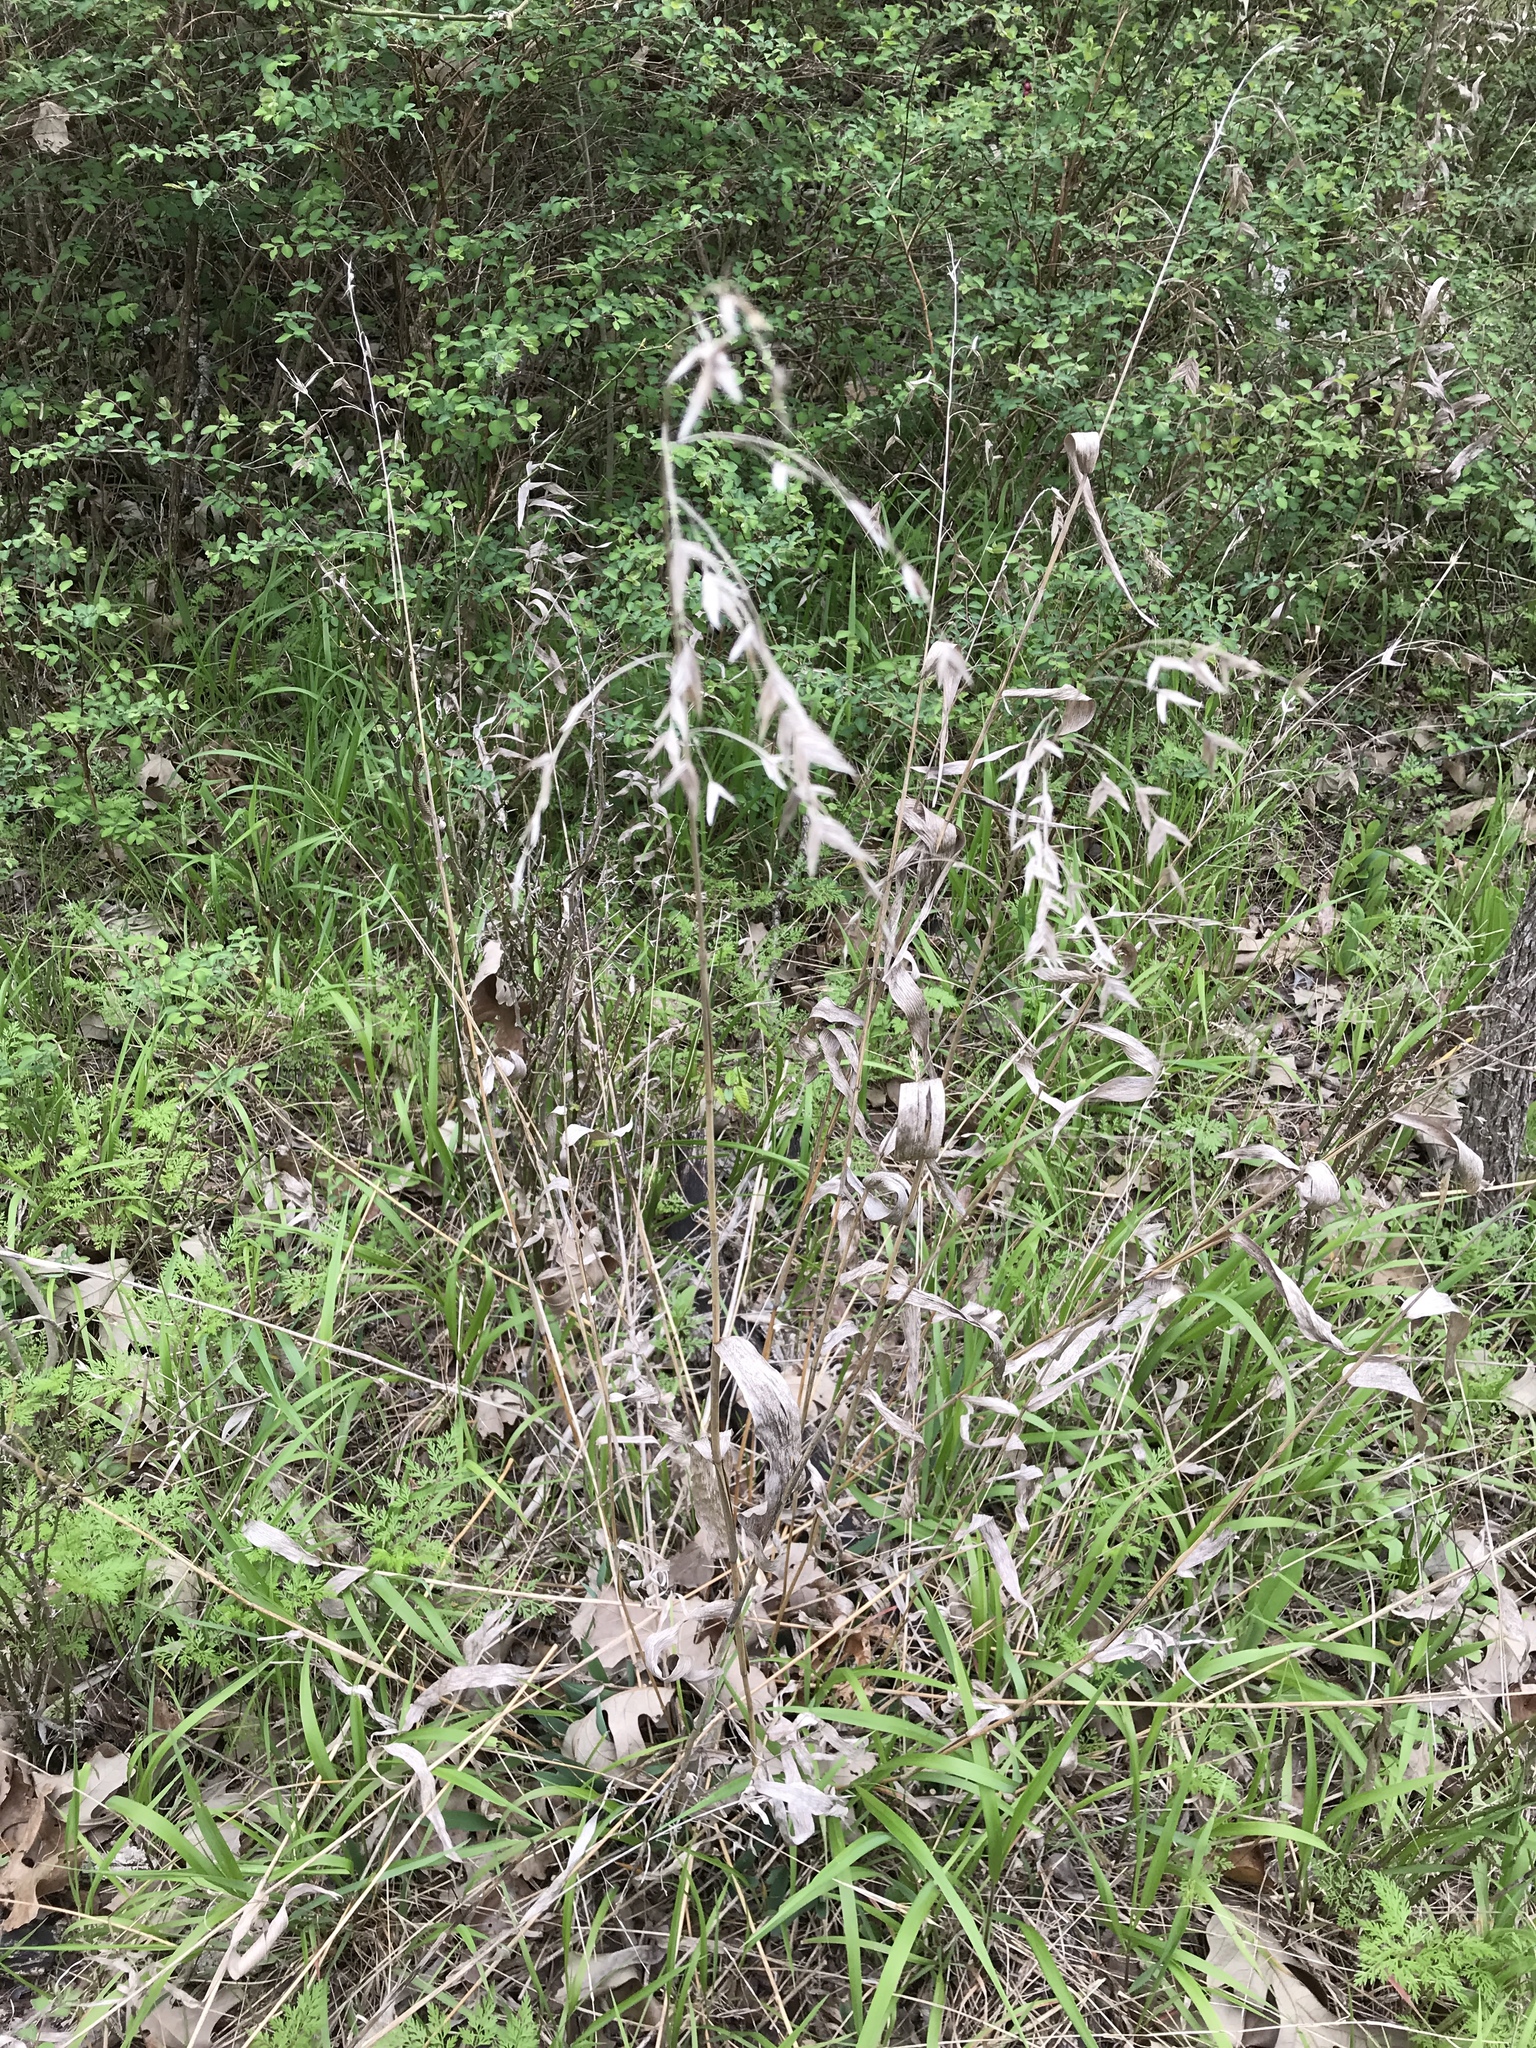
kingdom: Plantae
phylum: Tracheophyta
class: Liliopsida
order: Poales
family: Poaceae
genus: Chasmanthium
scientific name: Chasmanthium latifolium
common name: Broad-leaved chasmanthium
